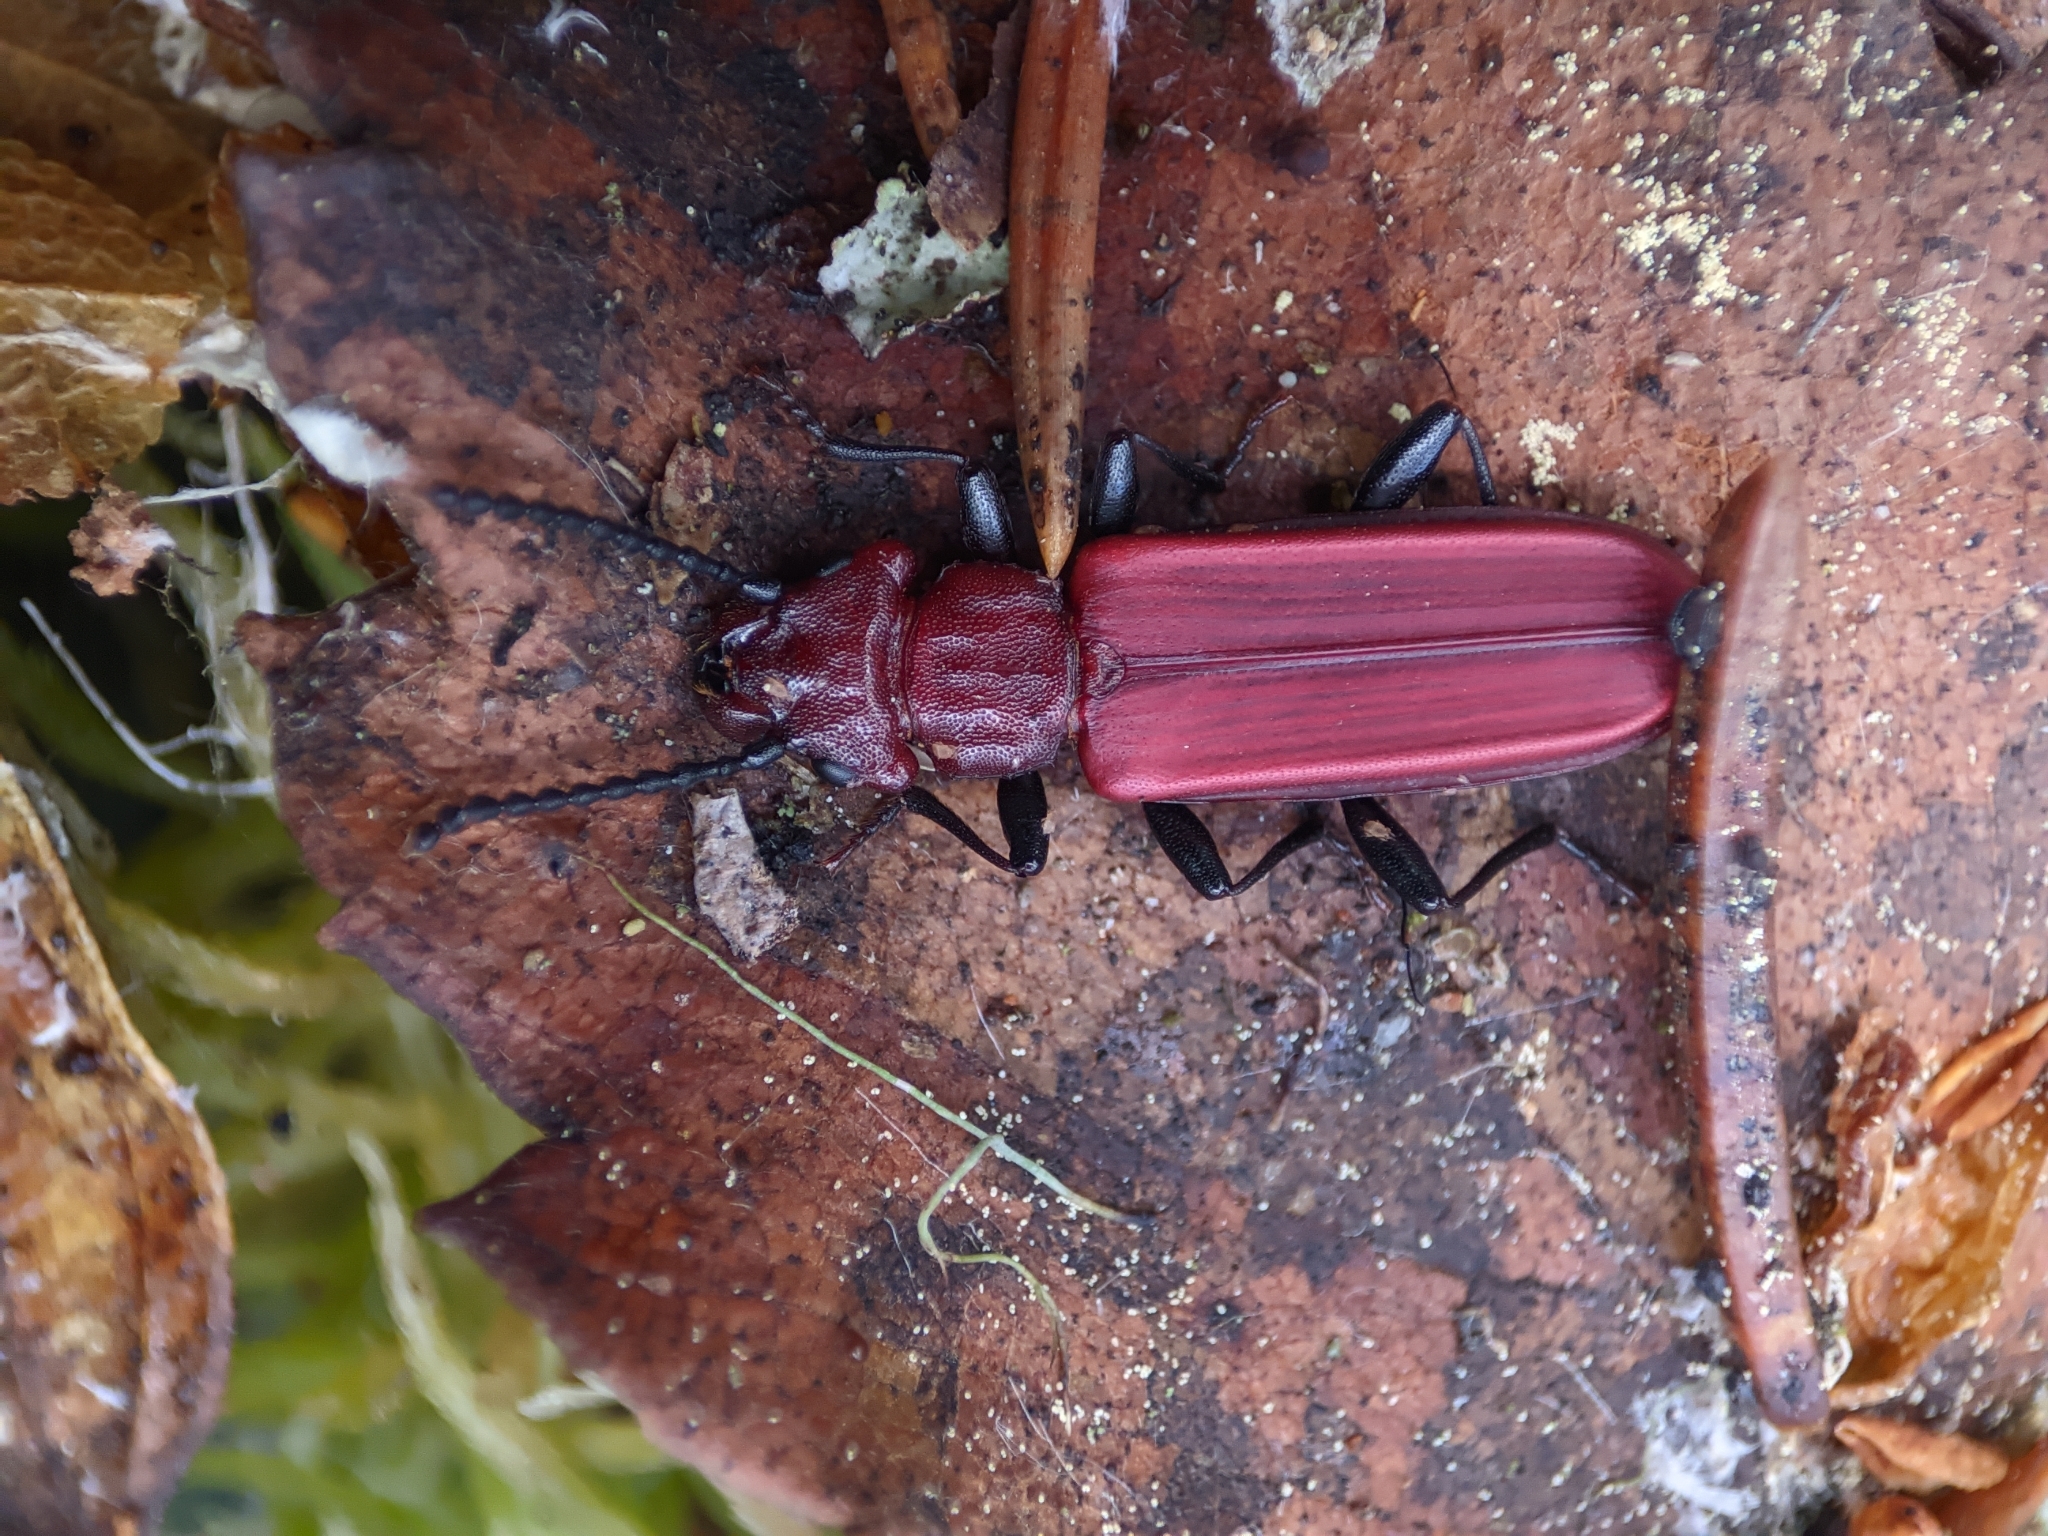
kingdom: Animalia
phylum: Arthropoda
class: Insecta
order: Coleoptera
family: Cucujidae
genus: Cucujus
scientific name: Cucujus haematodes
